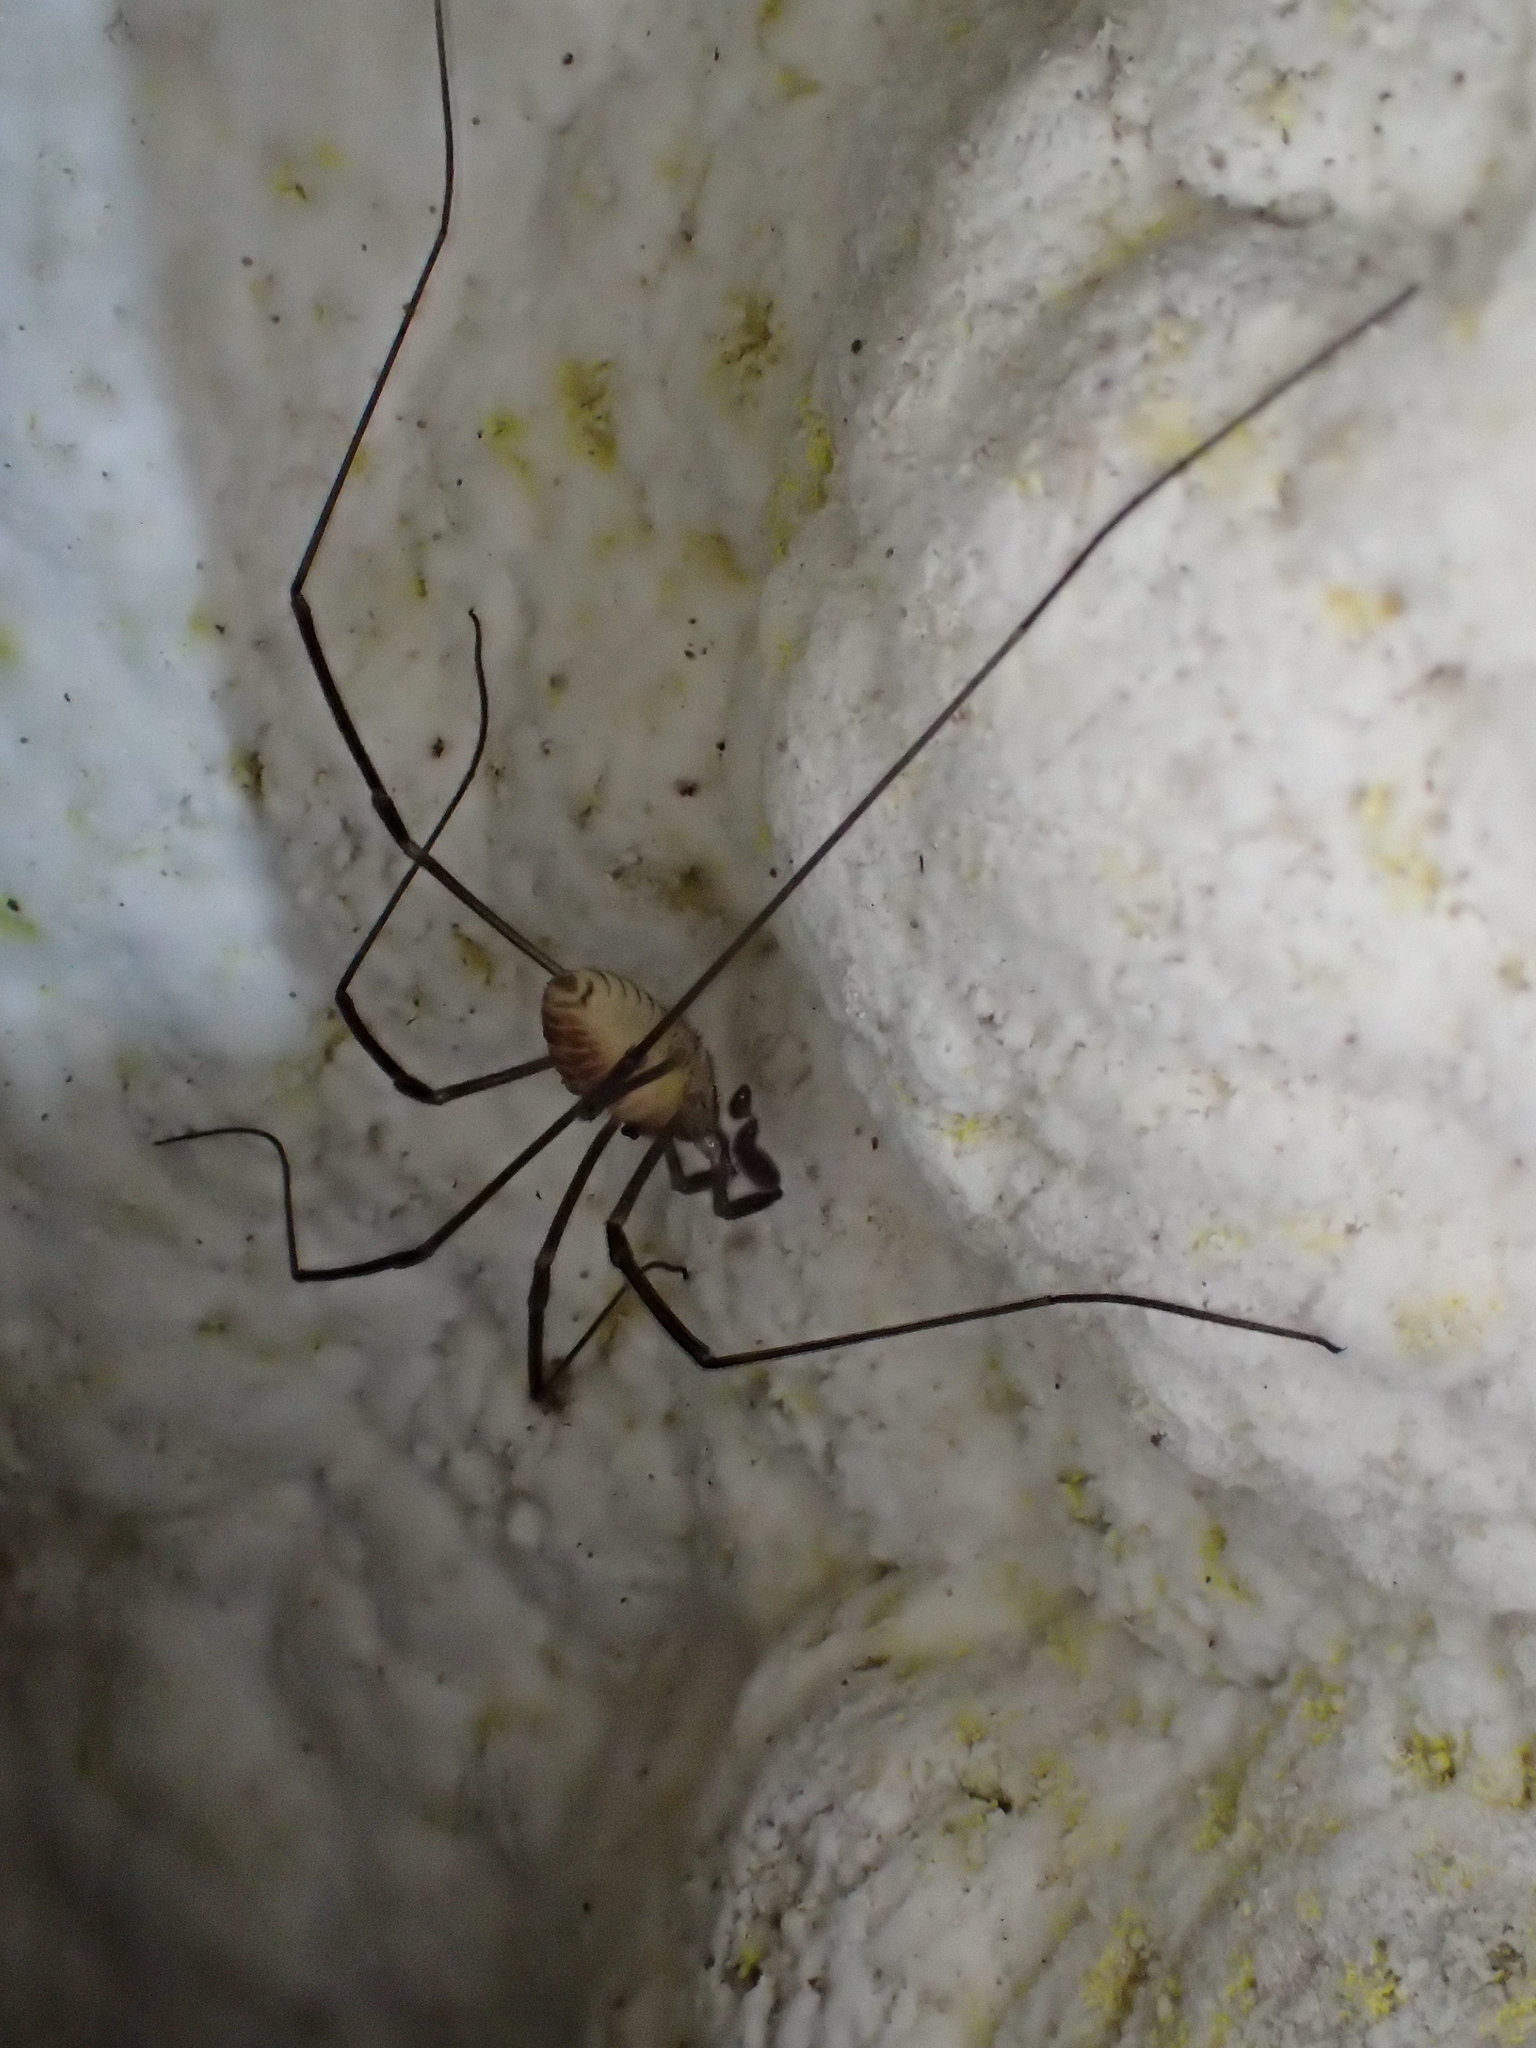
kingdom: Animalia
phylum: Arthropoda
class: Arachnida
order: Opiliones
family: Sabaconidae
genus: Sabacon
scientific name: Sabacon paradoxus
